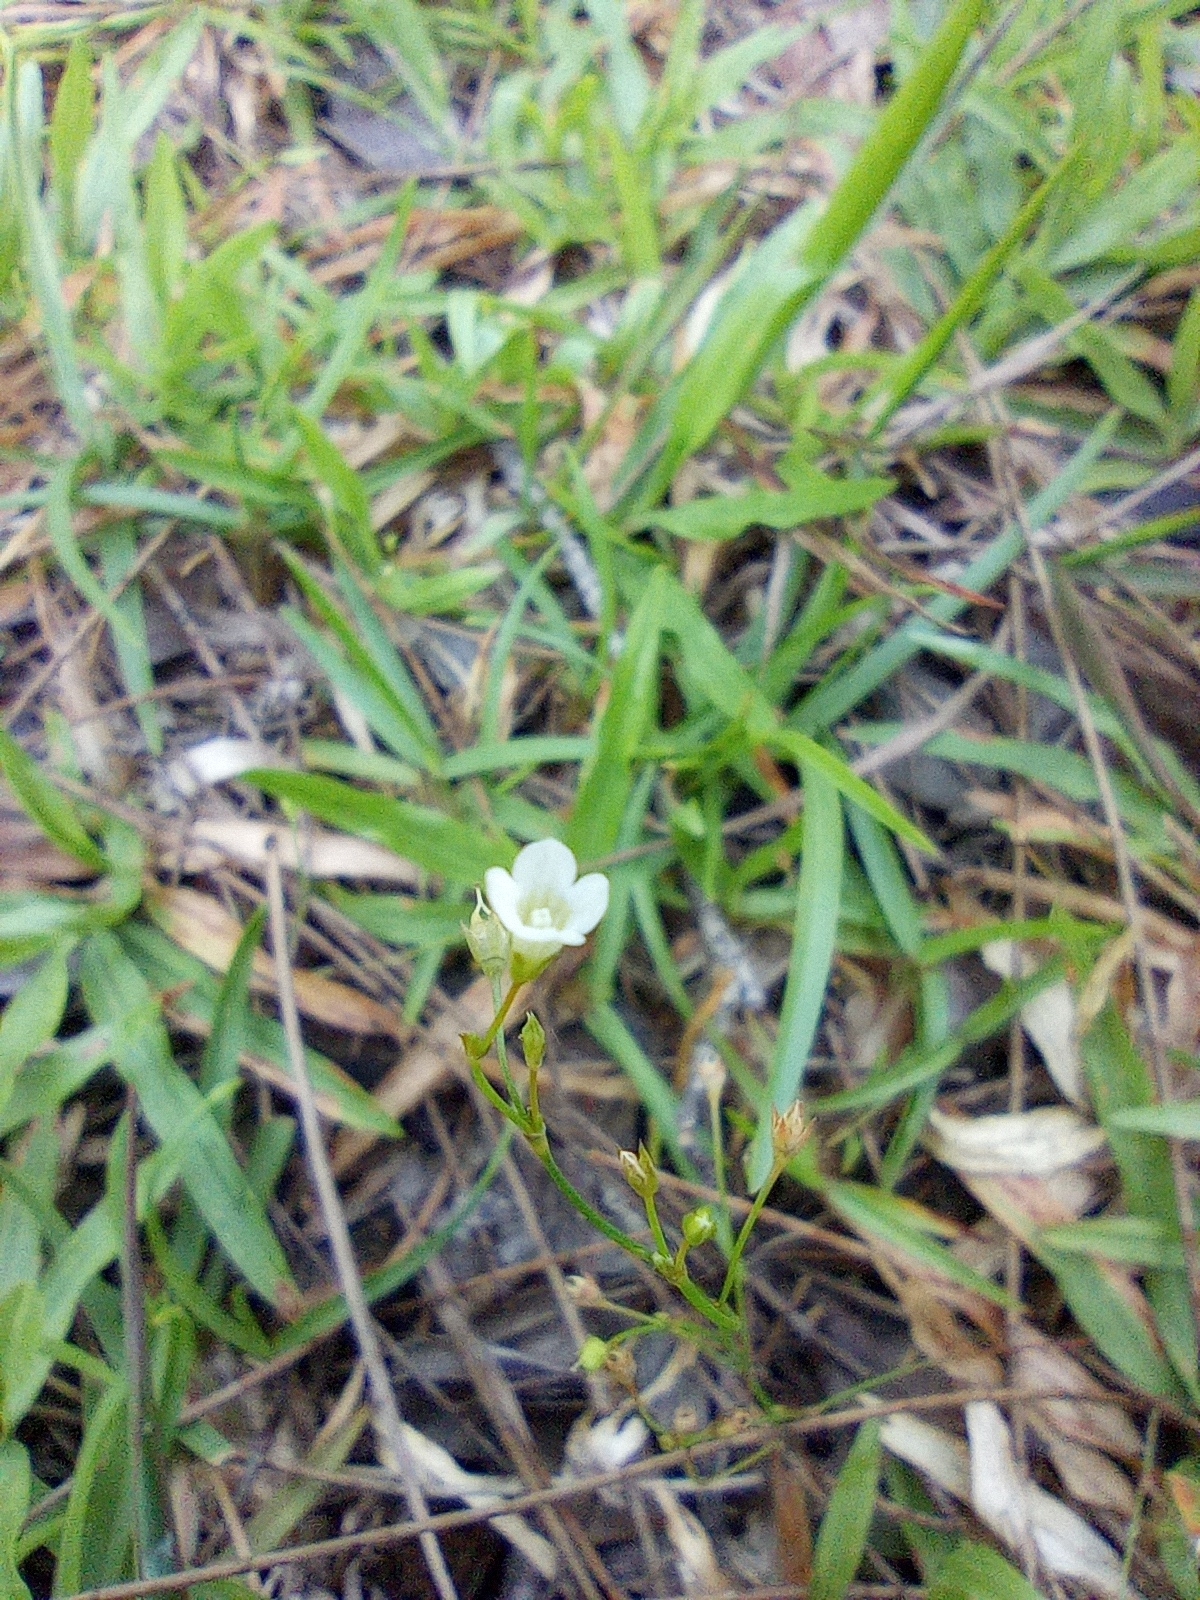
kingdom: Plantae
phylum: Tracheophyta
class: Magnoliopsida
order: Gentianales
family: Loganiaceae
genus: Mitrasacme
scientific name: Mitrasacme pygmaea
